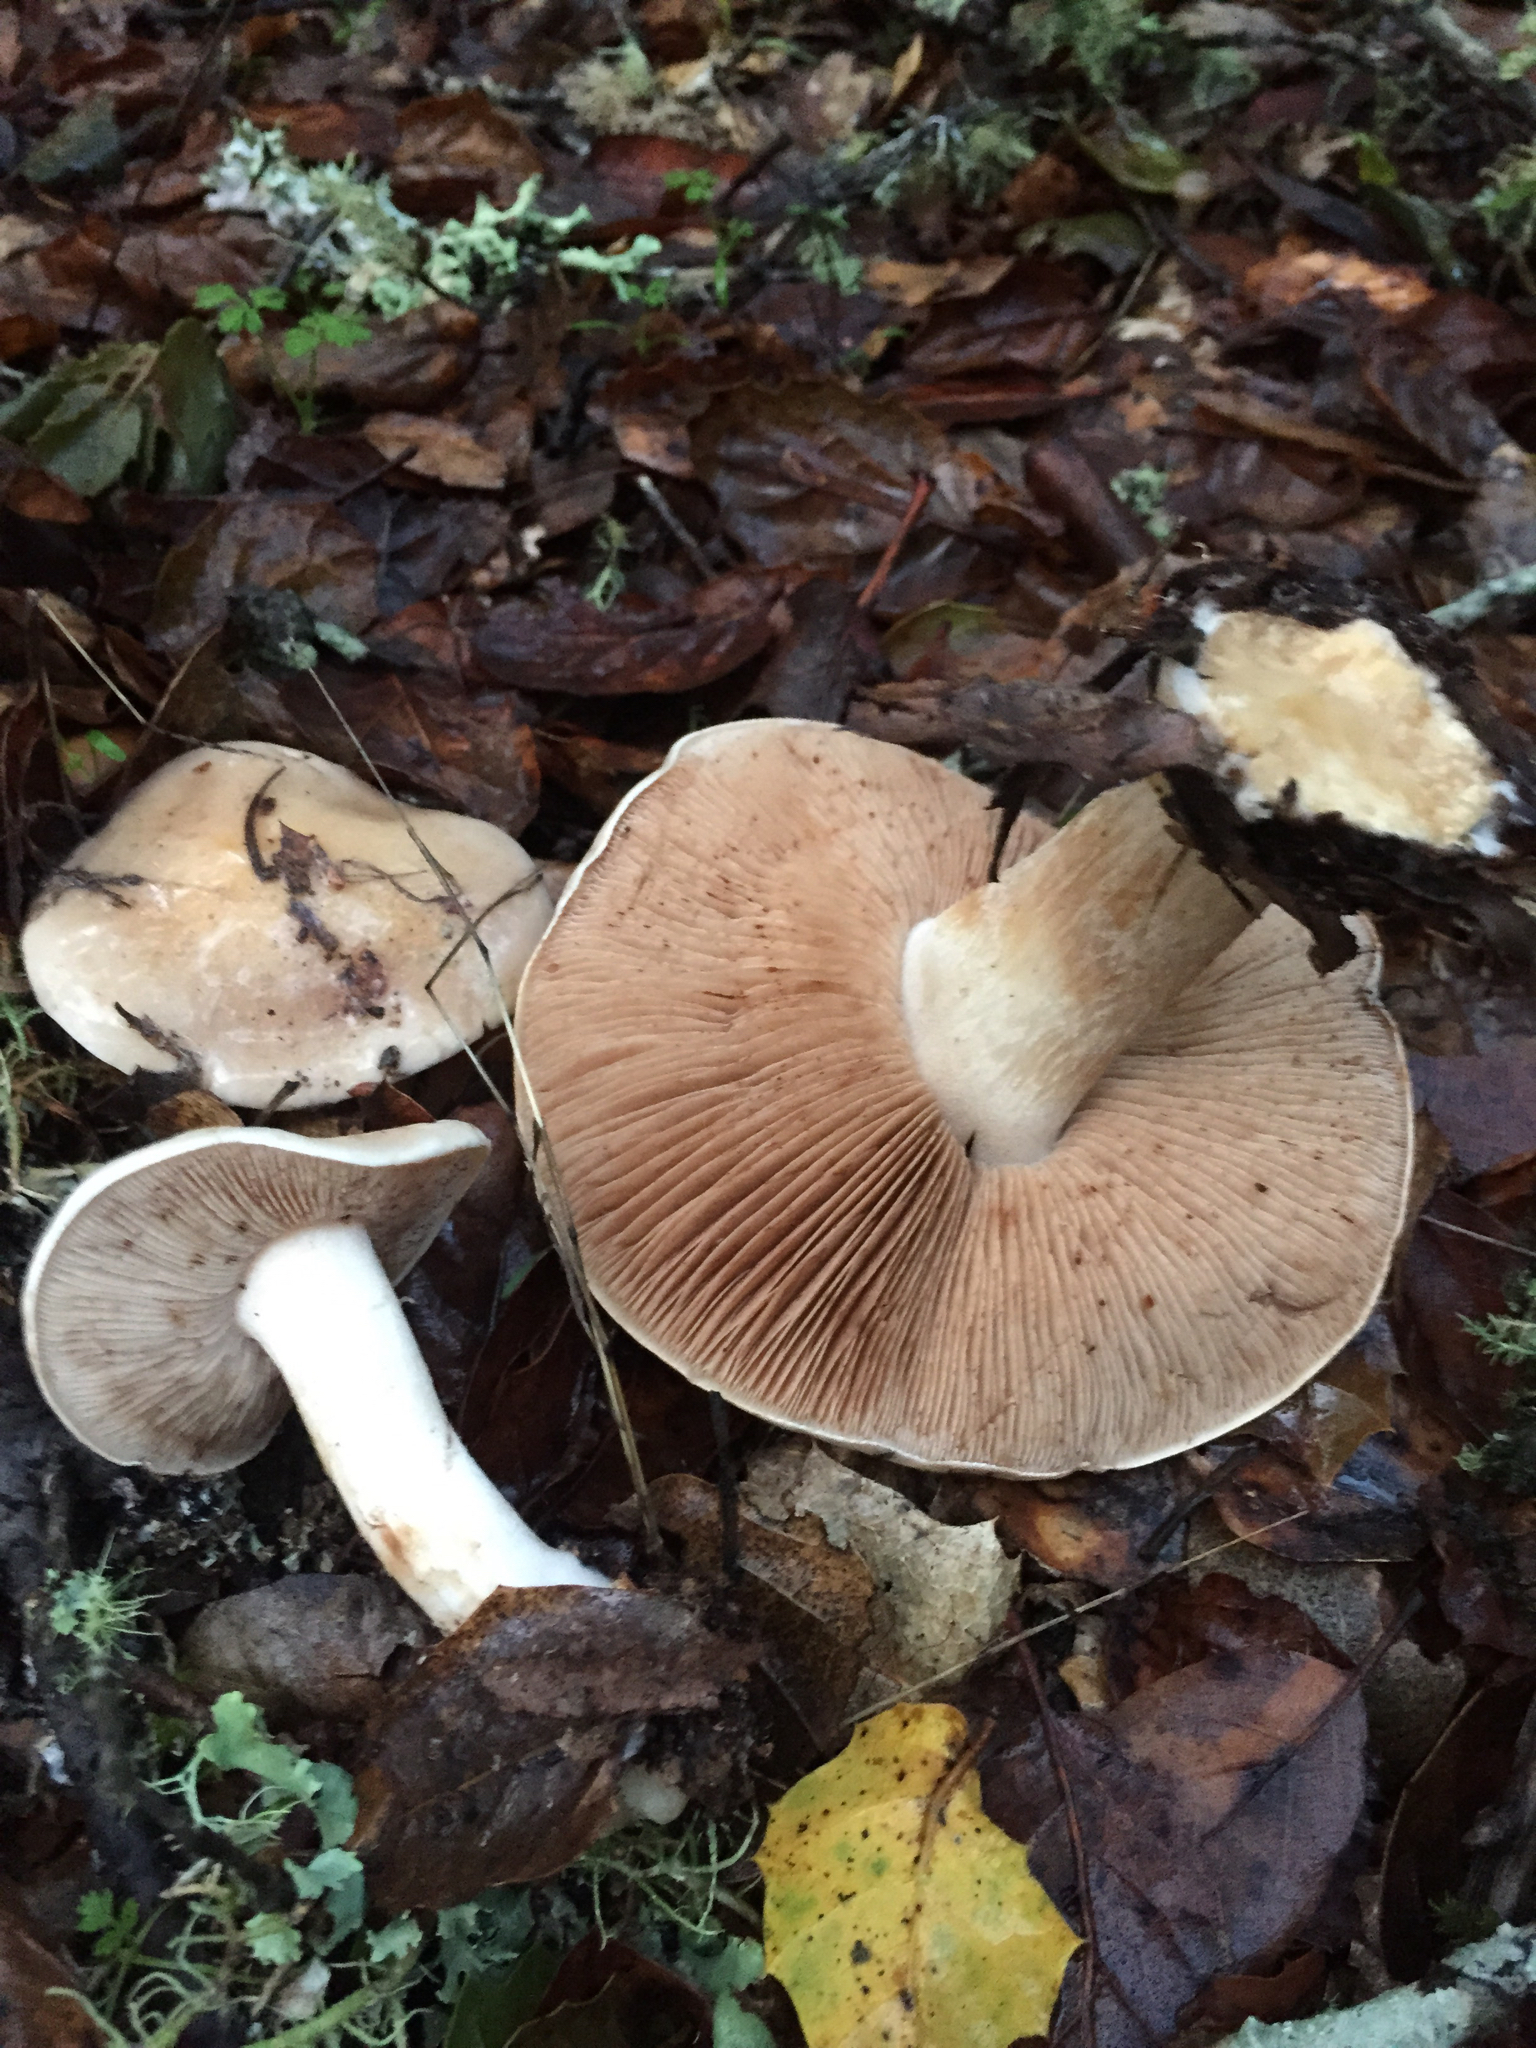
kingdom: Fungi
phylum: Basidiomycota
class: Agaricomycetes
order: Agaricales
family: Hymenogastraceae
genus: Hebeloma
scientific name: Hebeloma crustuliniforme
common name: Poison pie
